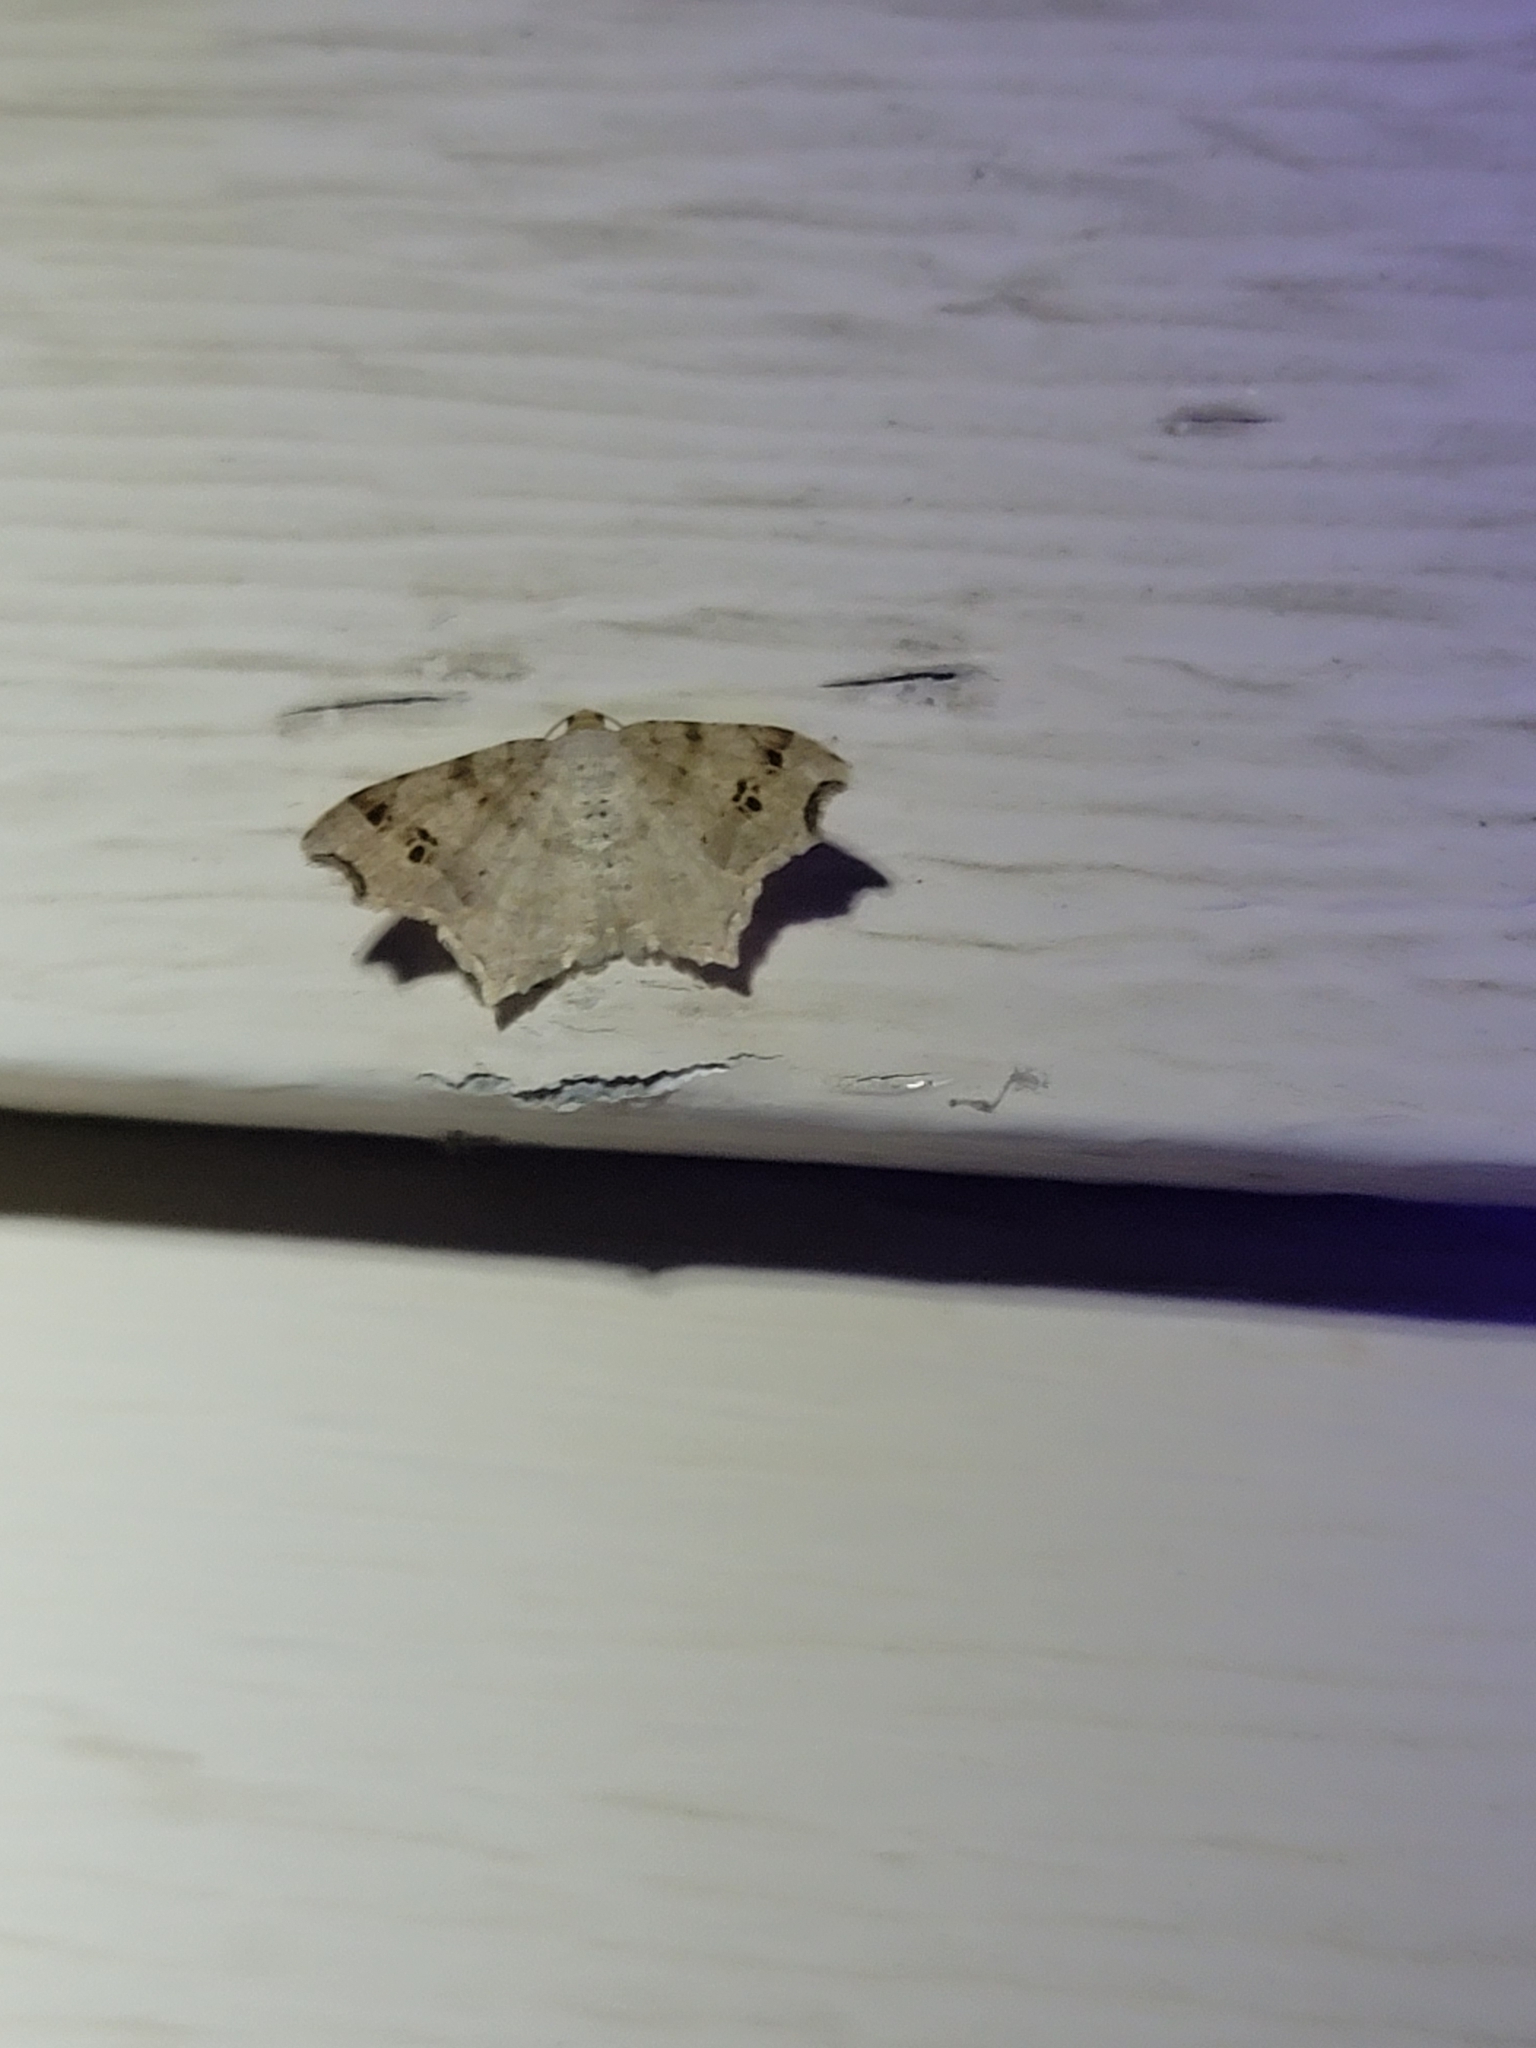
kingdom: Animalia
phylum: Arthropoda
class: Insecta
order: Lepidoptera
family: Geometridae
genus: Macaria
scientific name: Macaria aemulataria
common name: Common angle
